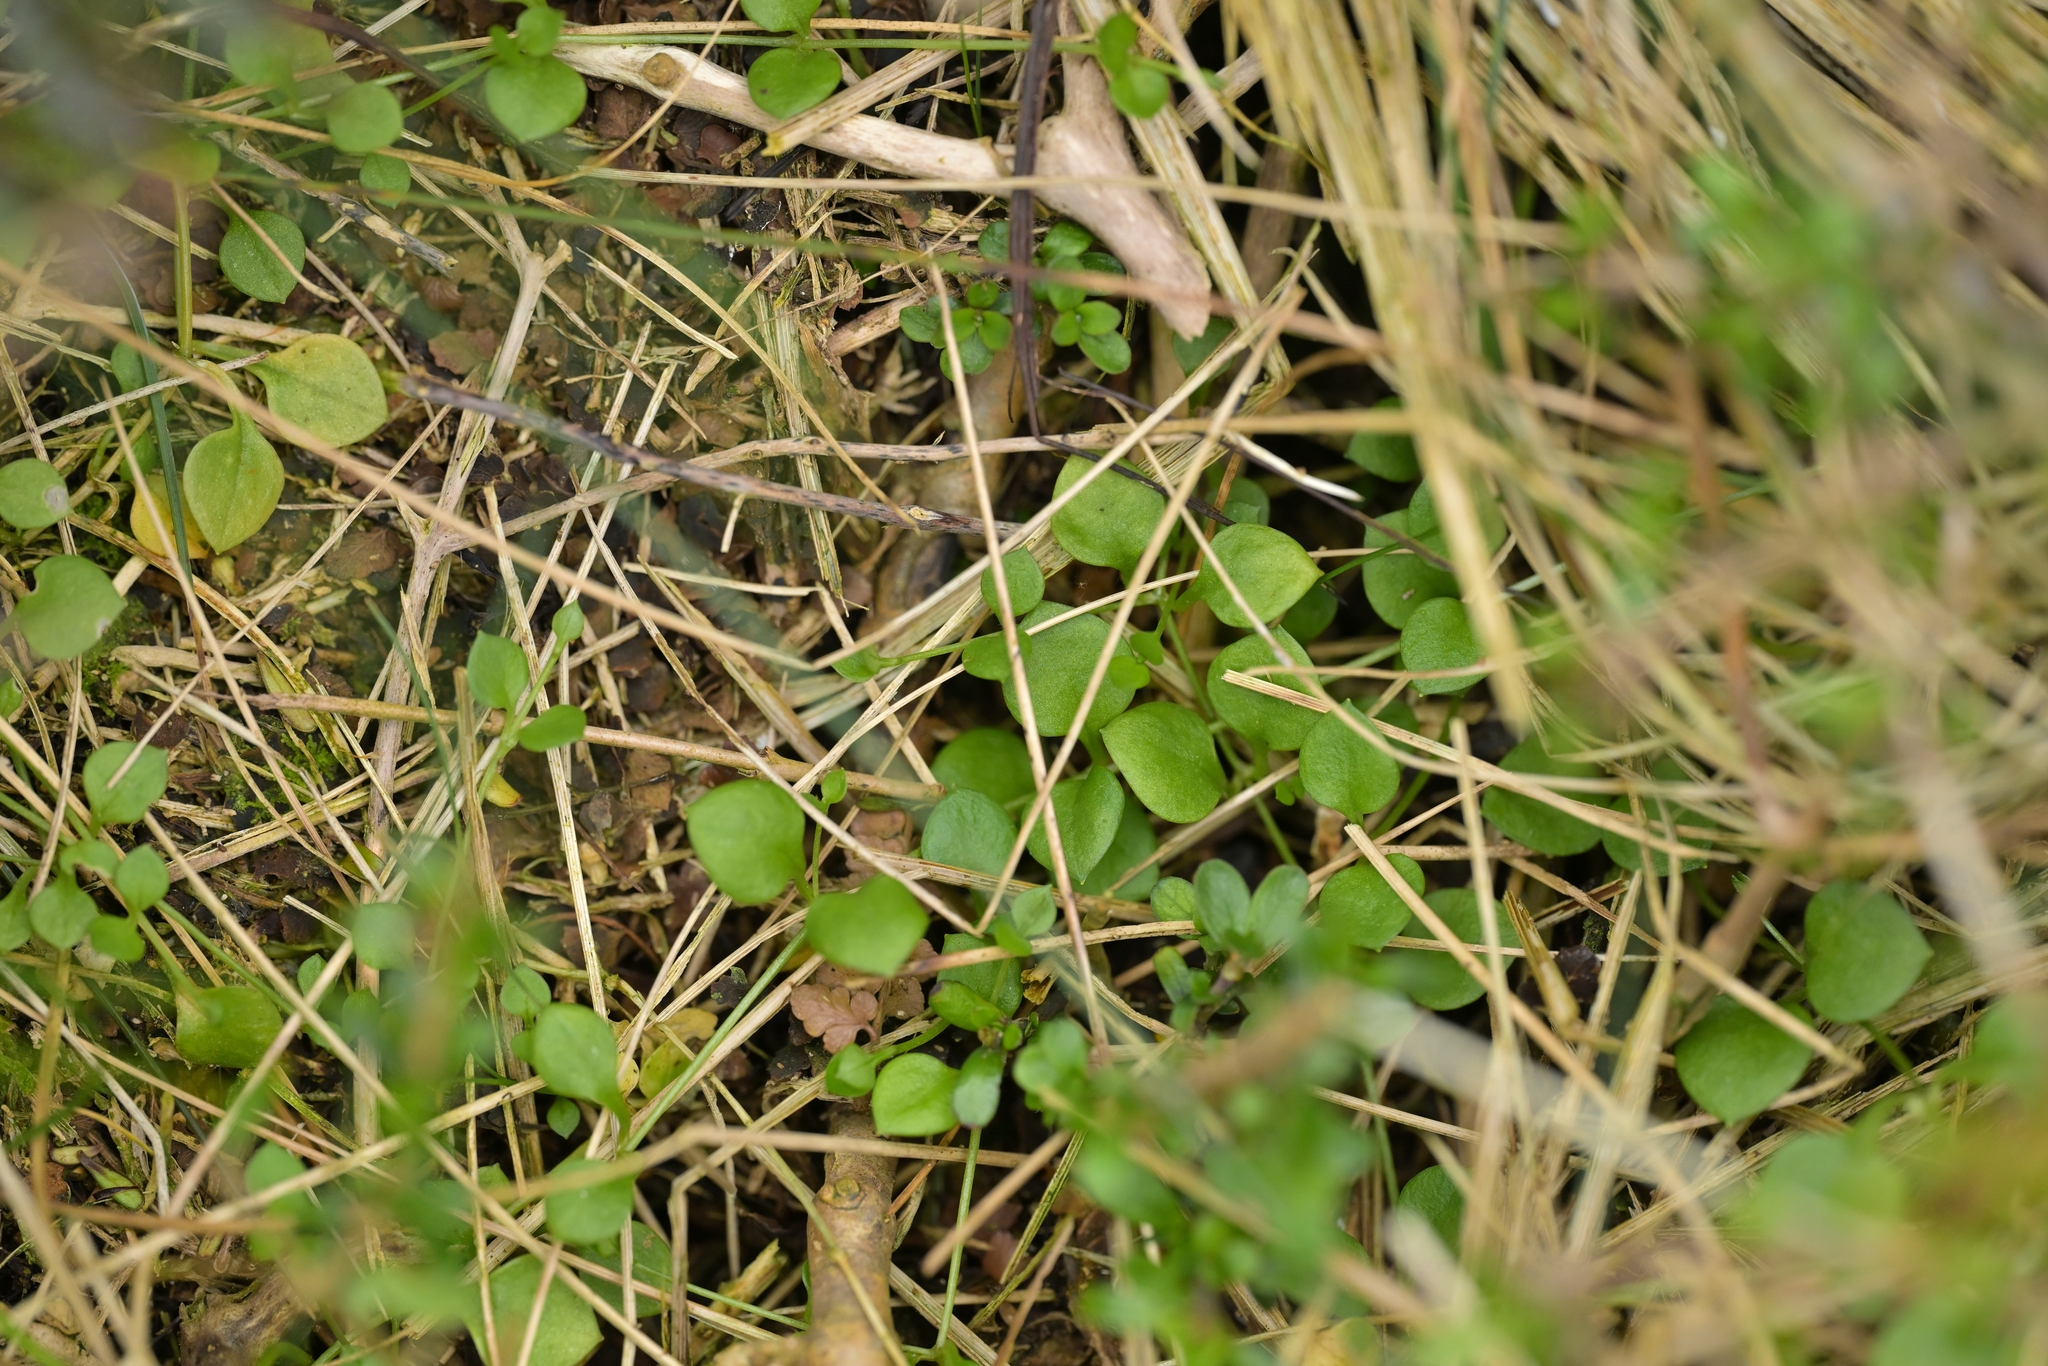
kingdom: Plantae
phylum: Tracheophyta
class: Magnoliopsida
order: Caryophyllales
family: Caryophyllaceae
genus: Stellaria
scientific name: Stellaria parviflora
